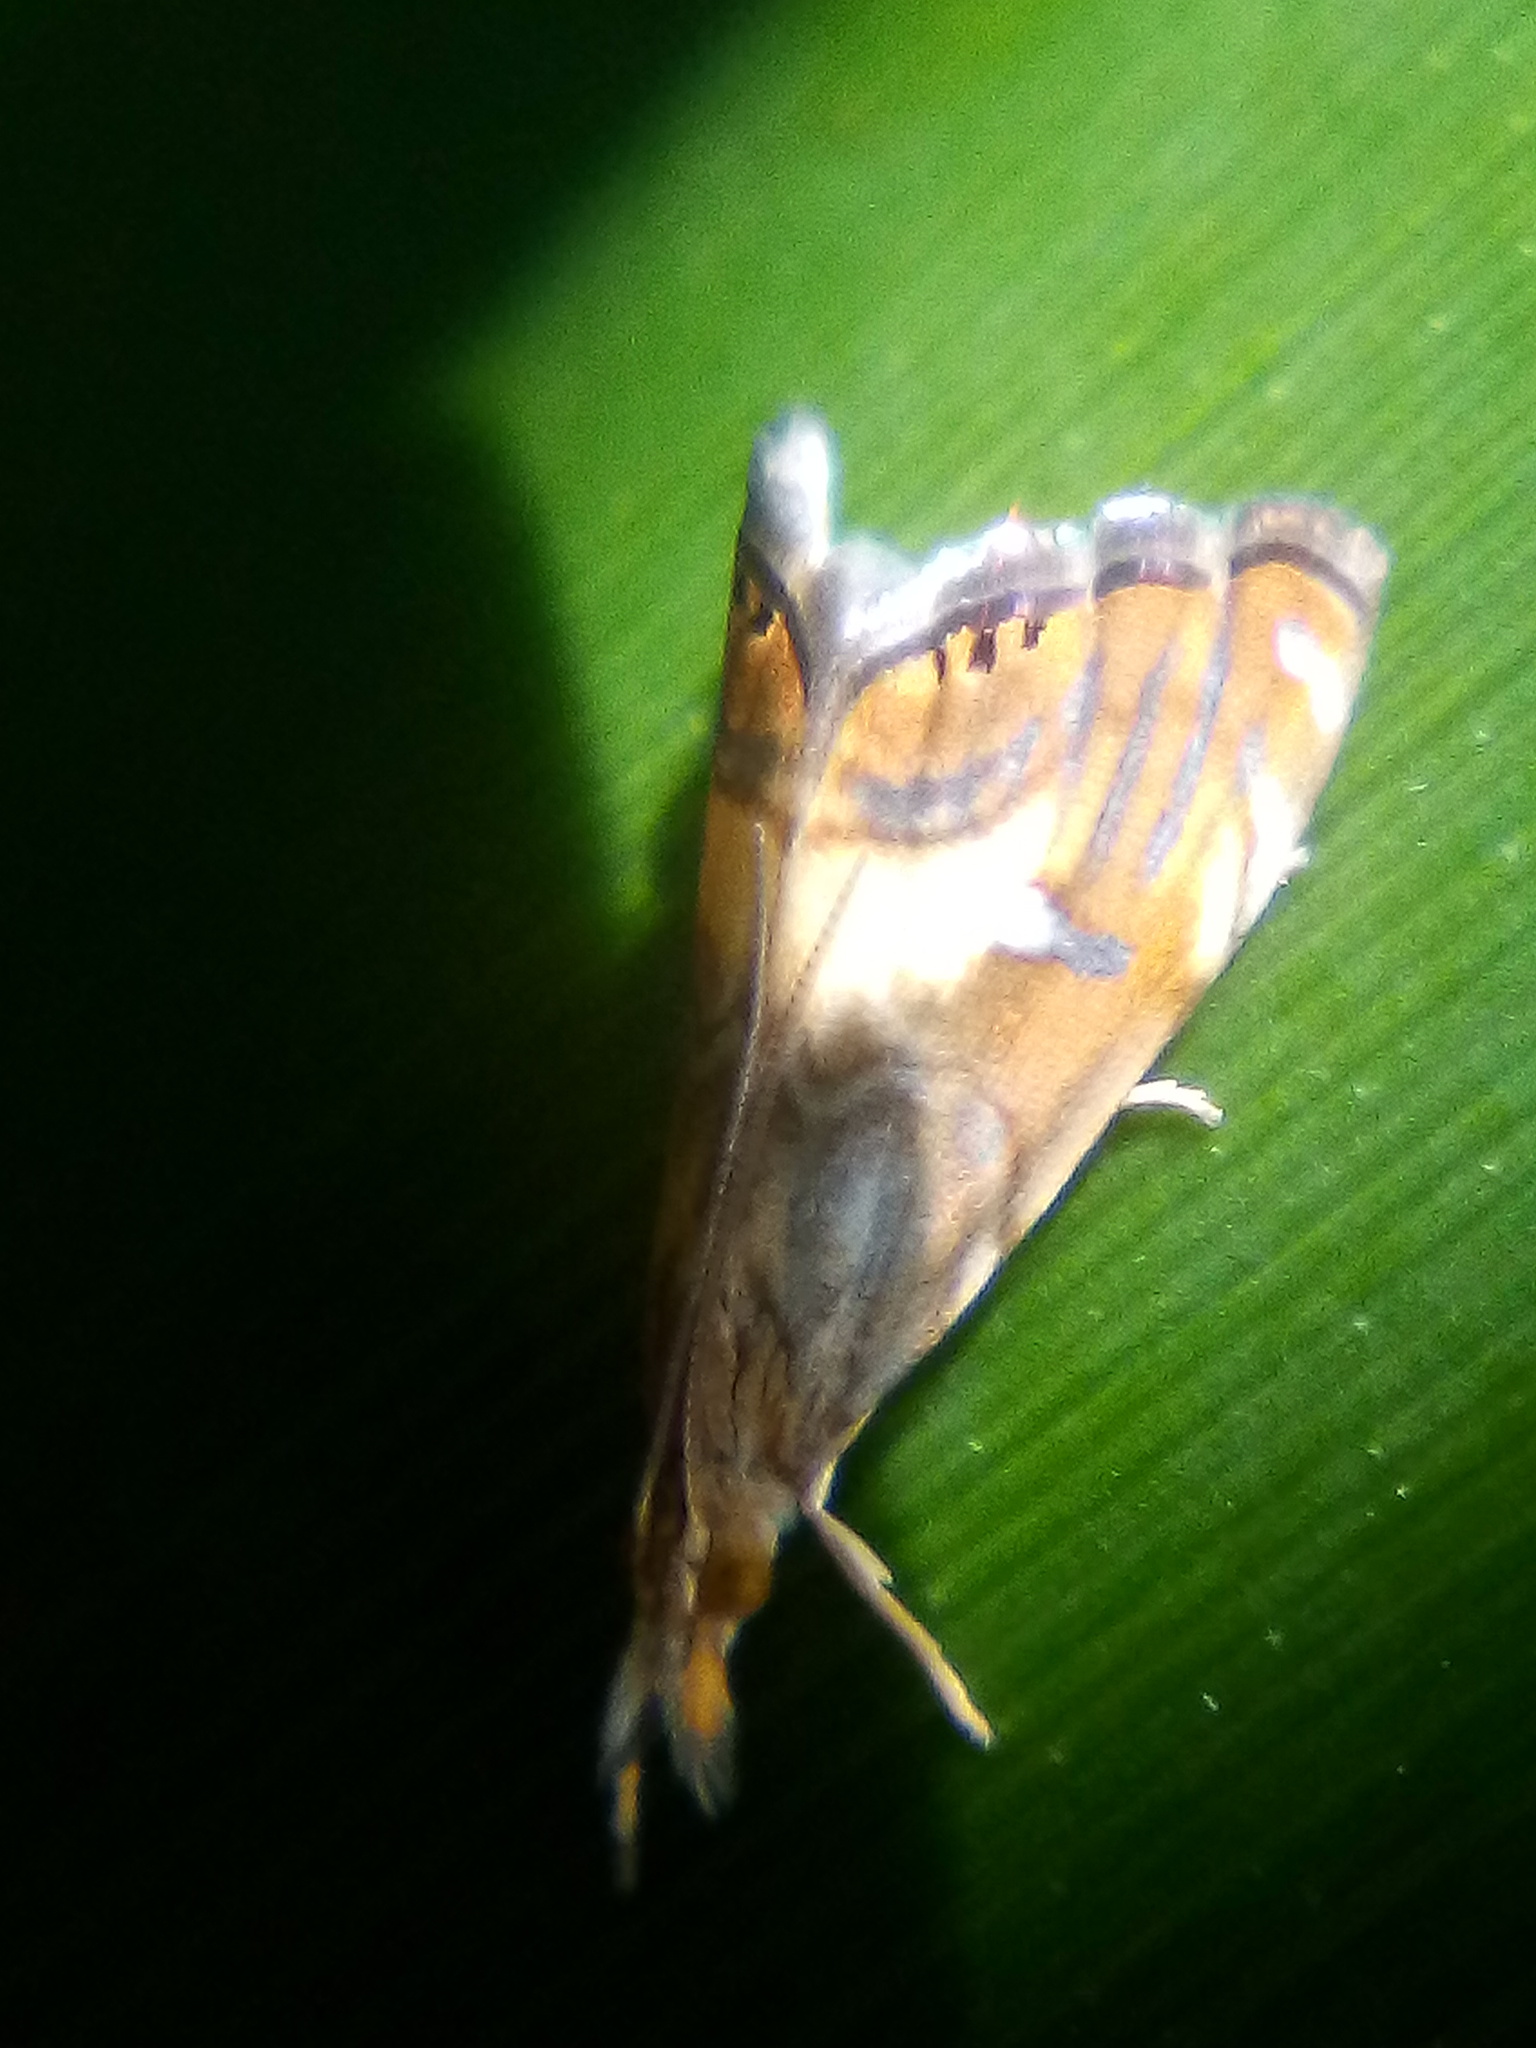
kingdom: Animalia
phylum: Arthropoda
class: Insecta
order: Lepidoptera
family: Crambidae
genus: Glaucocharis
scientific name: Glaucocharis chrysochyta
